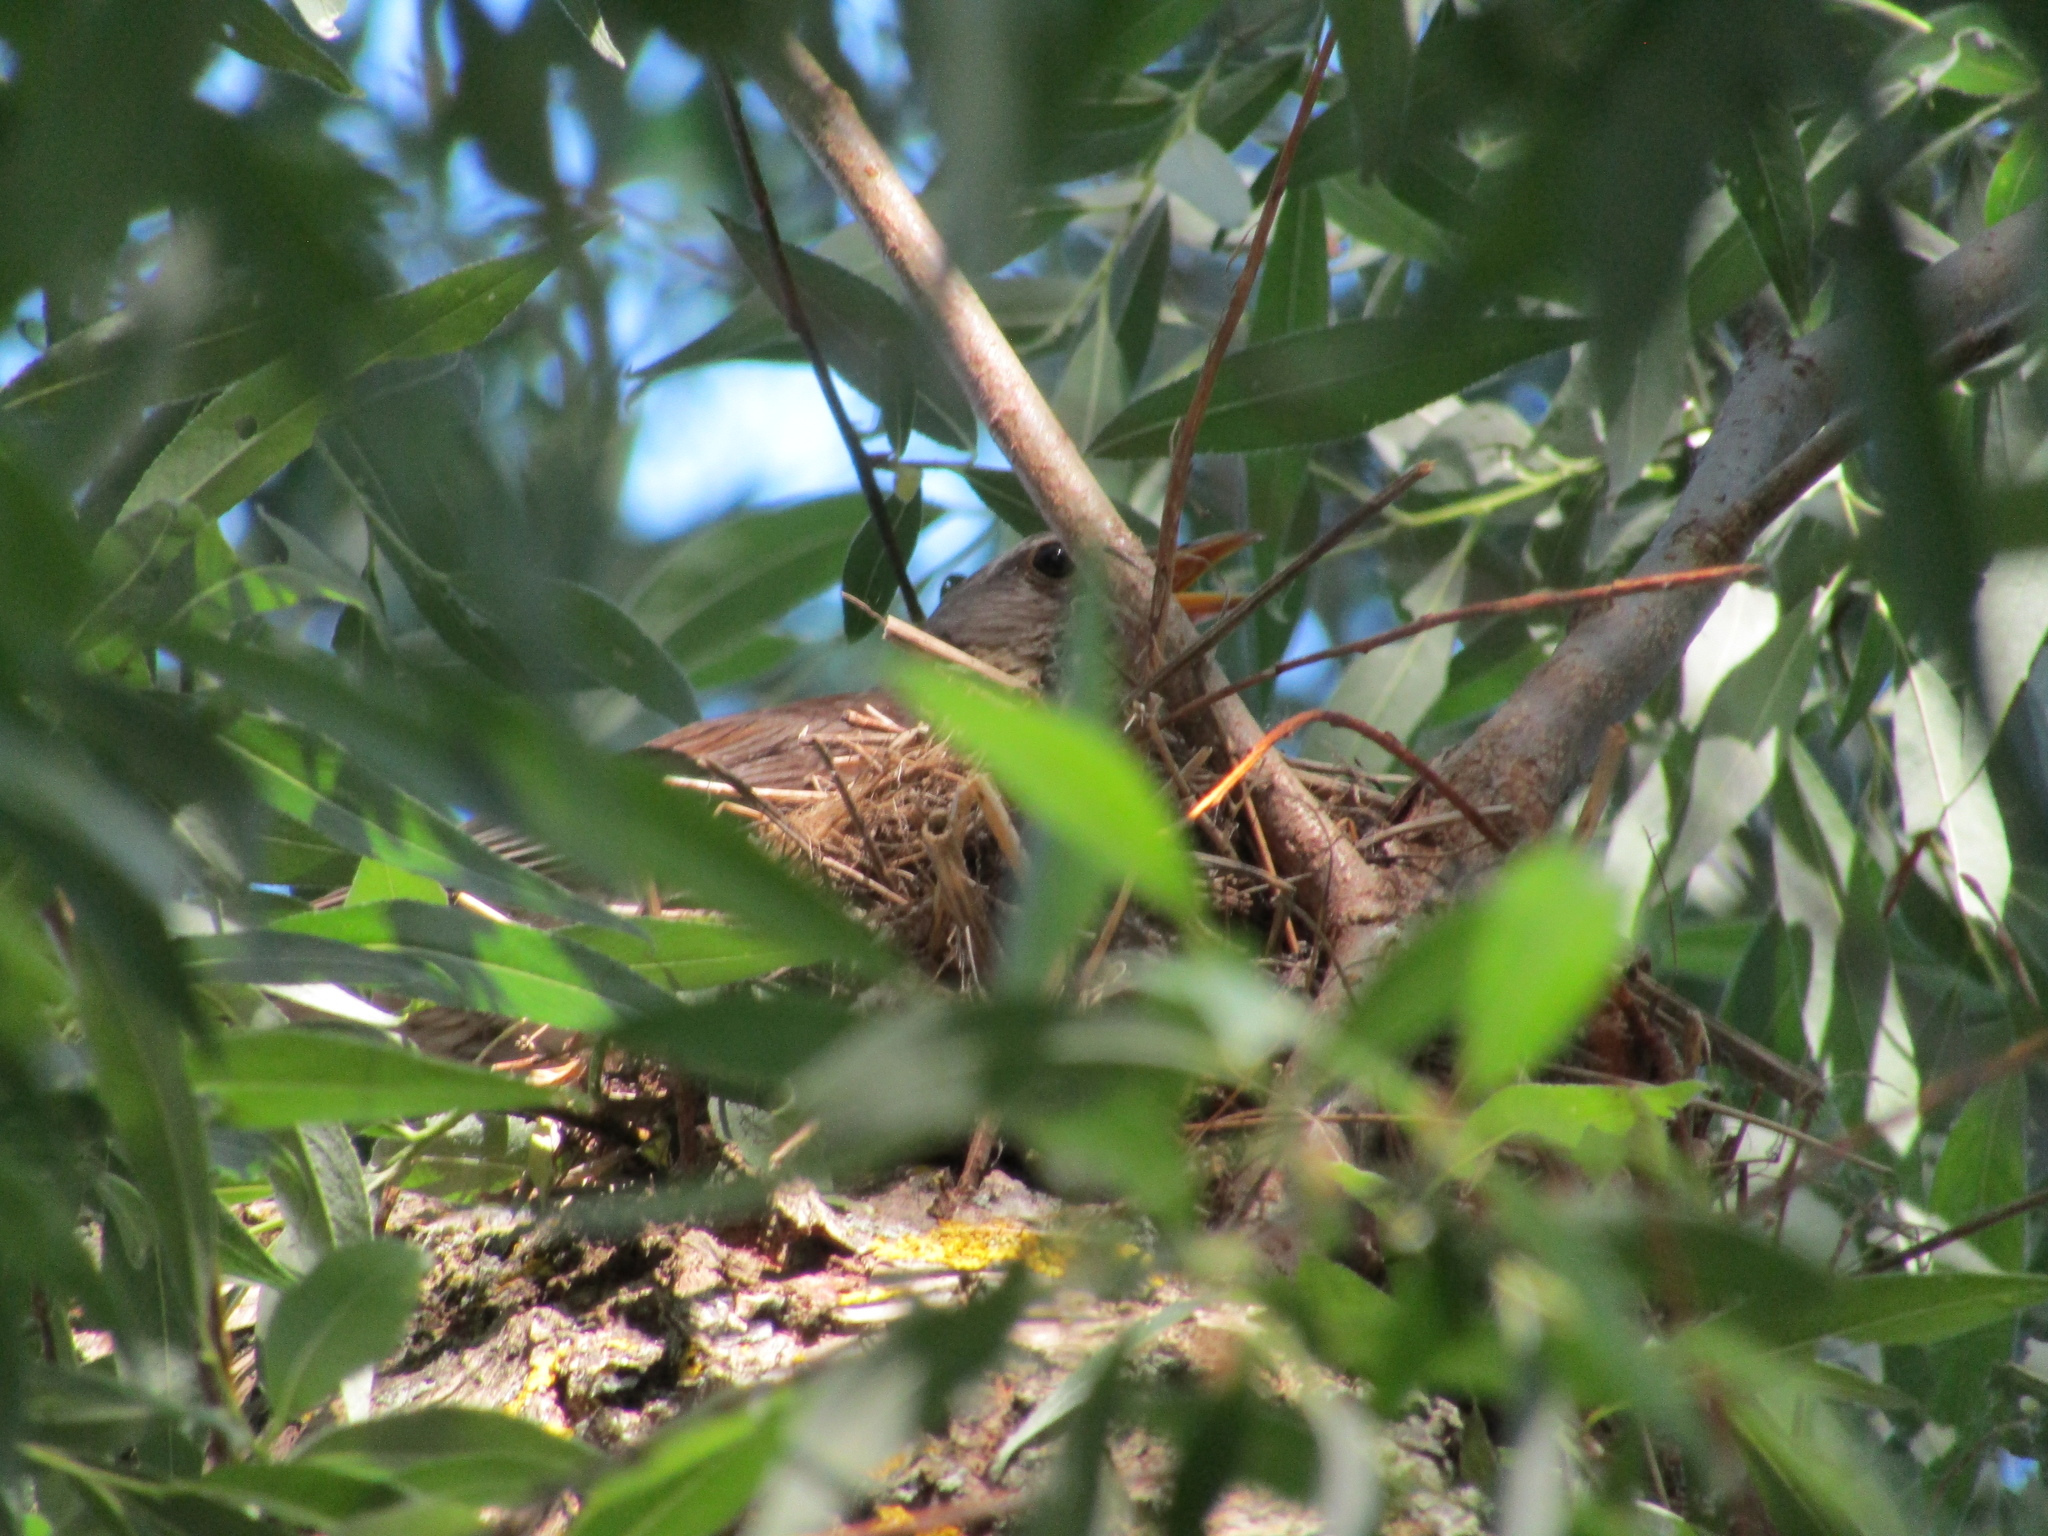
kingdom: Animalia
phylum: Chordata
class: Aves
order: Passeriformes
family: Turdidae
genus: Turdus
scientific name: Turdus pilaris
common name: Fieldfare
